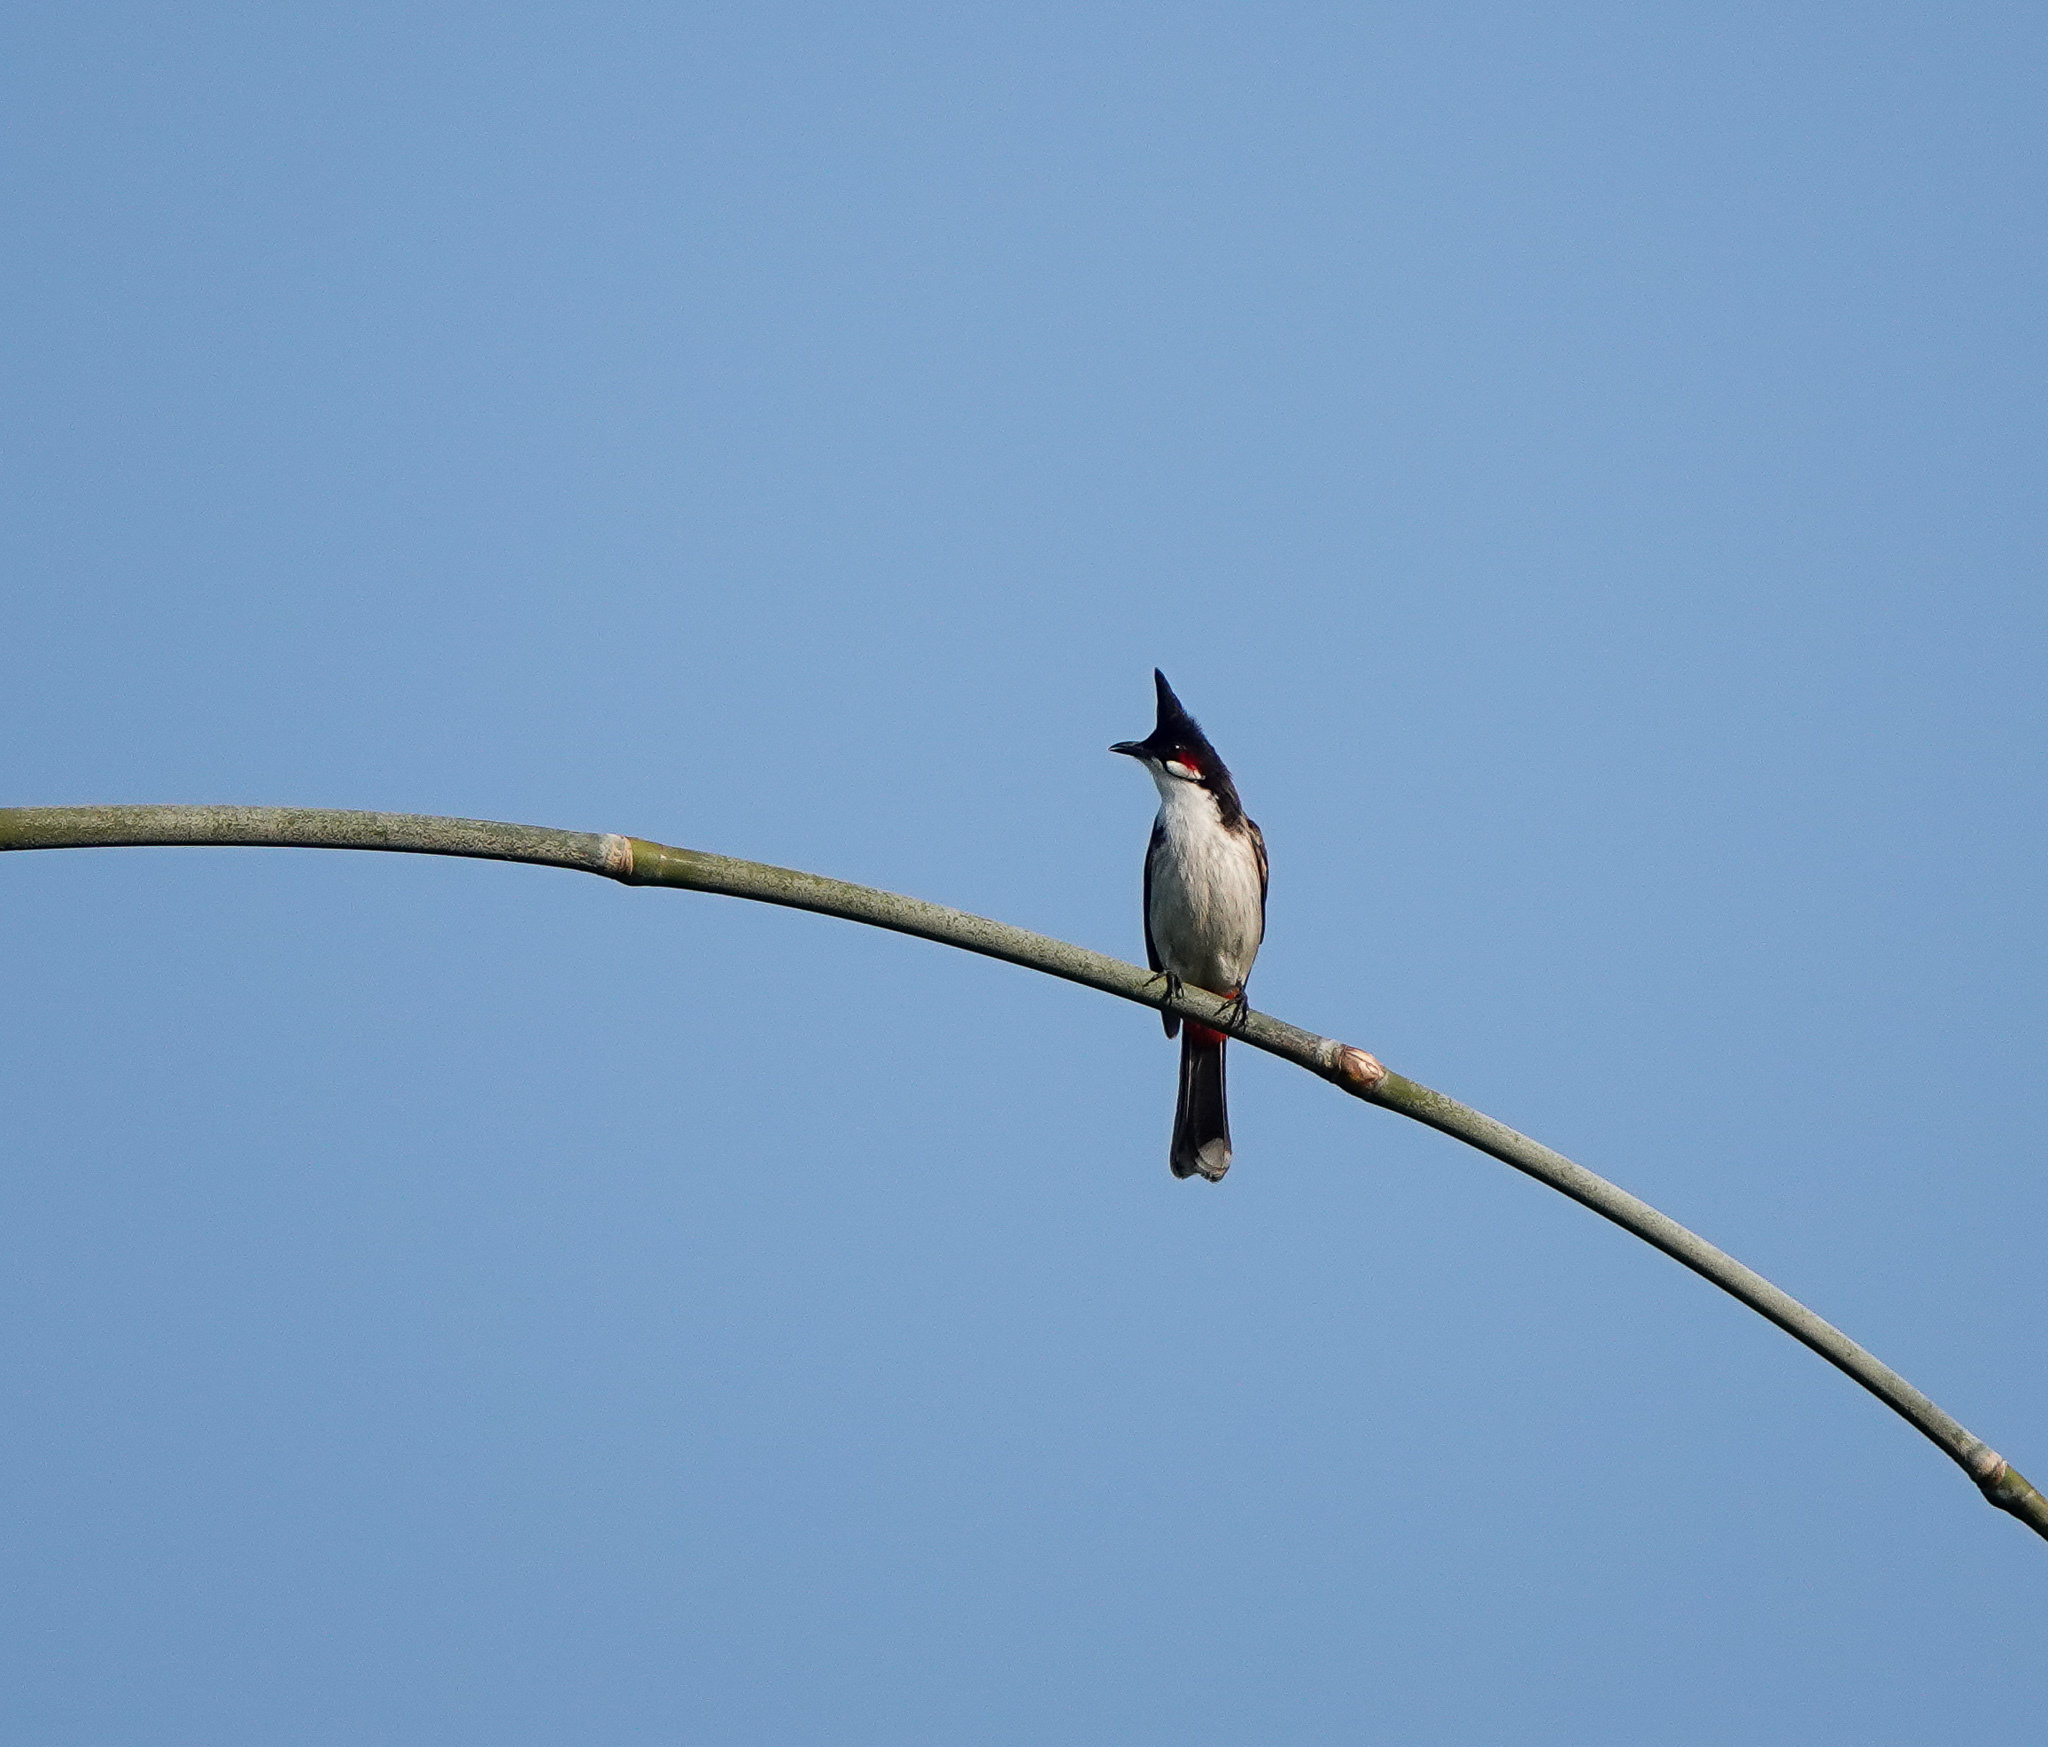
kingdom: Animalia
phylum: Chordata
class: Aves
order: Passeriformes
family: Pycnonotidae
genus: Pycnonotus
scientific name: Pycnonotus jocosus
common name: Red-whiskered bulbul
